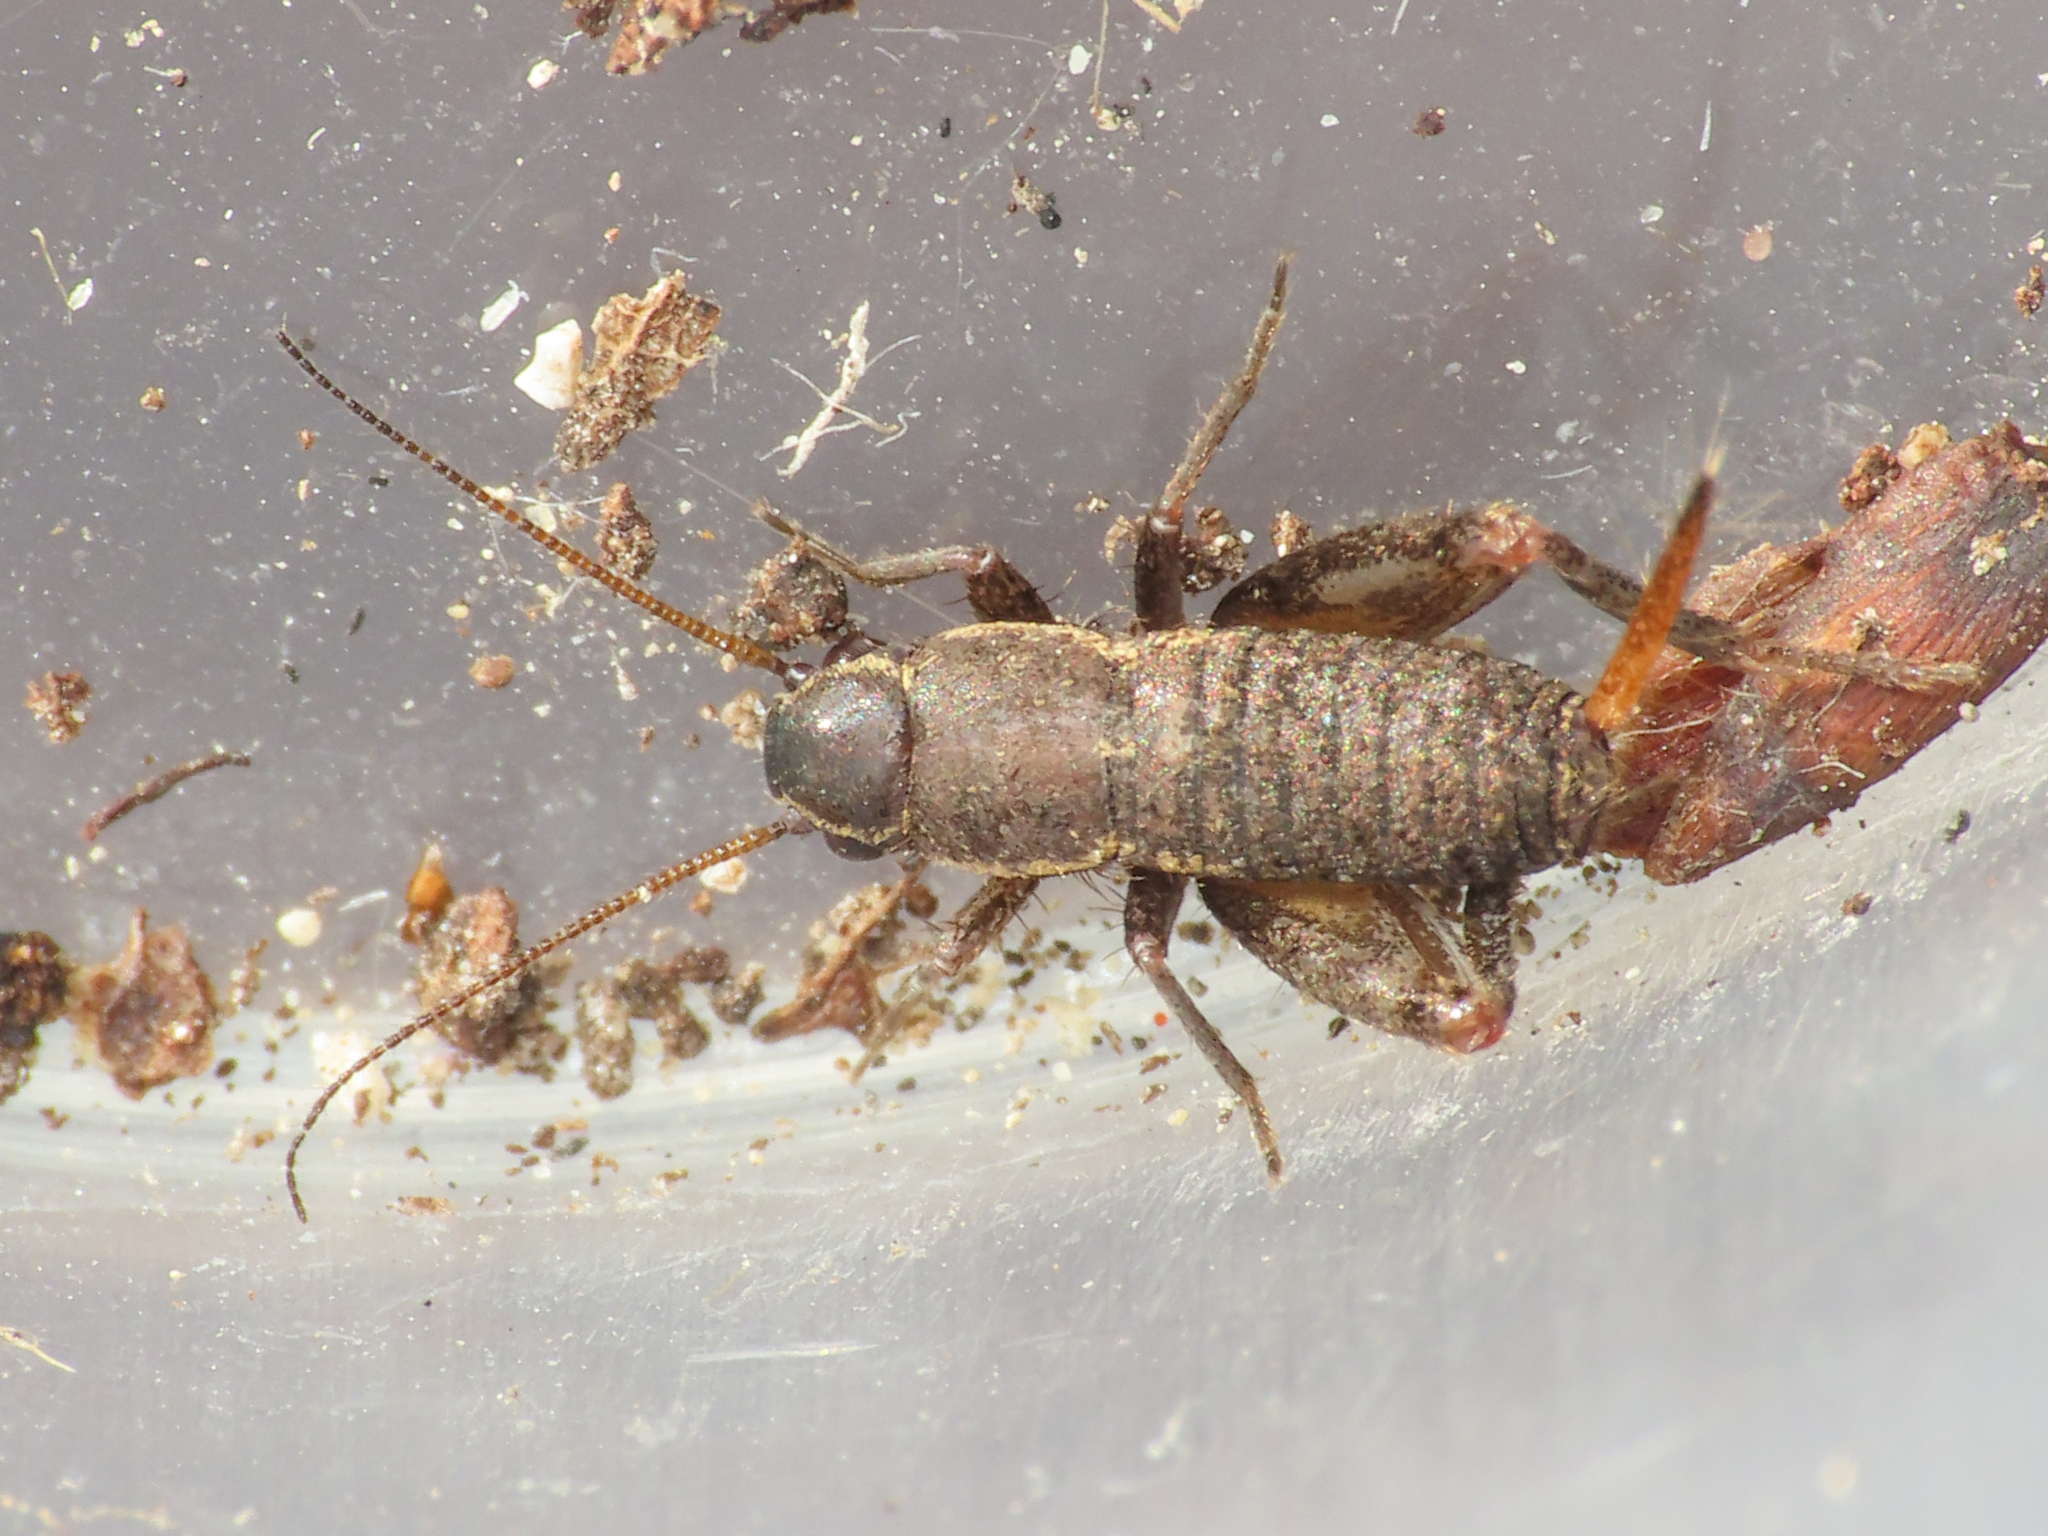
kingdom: Animalia
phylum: Arthropoda
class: Insecta
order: Orthoptera
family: Mogoplistidae
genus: Mogoplistes
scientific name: Mogoplistes brunneus
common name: Brown scale-cricket
